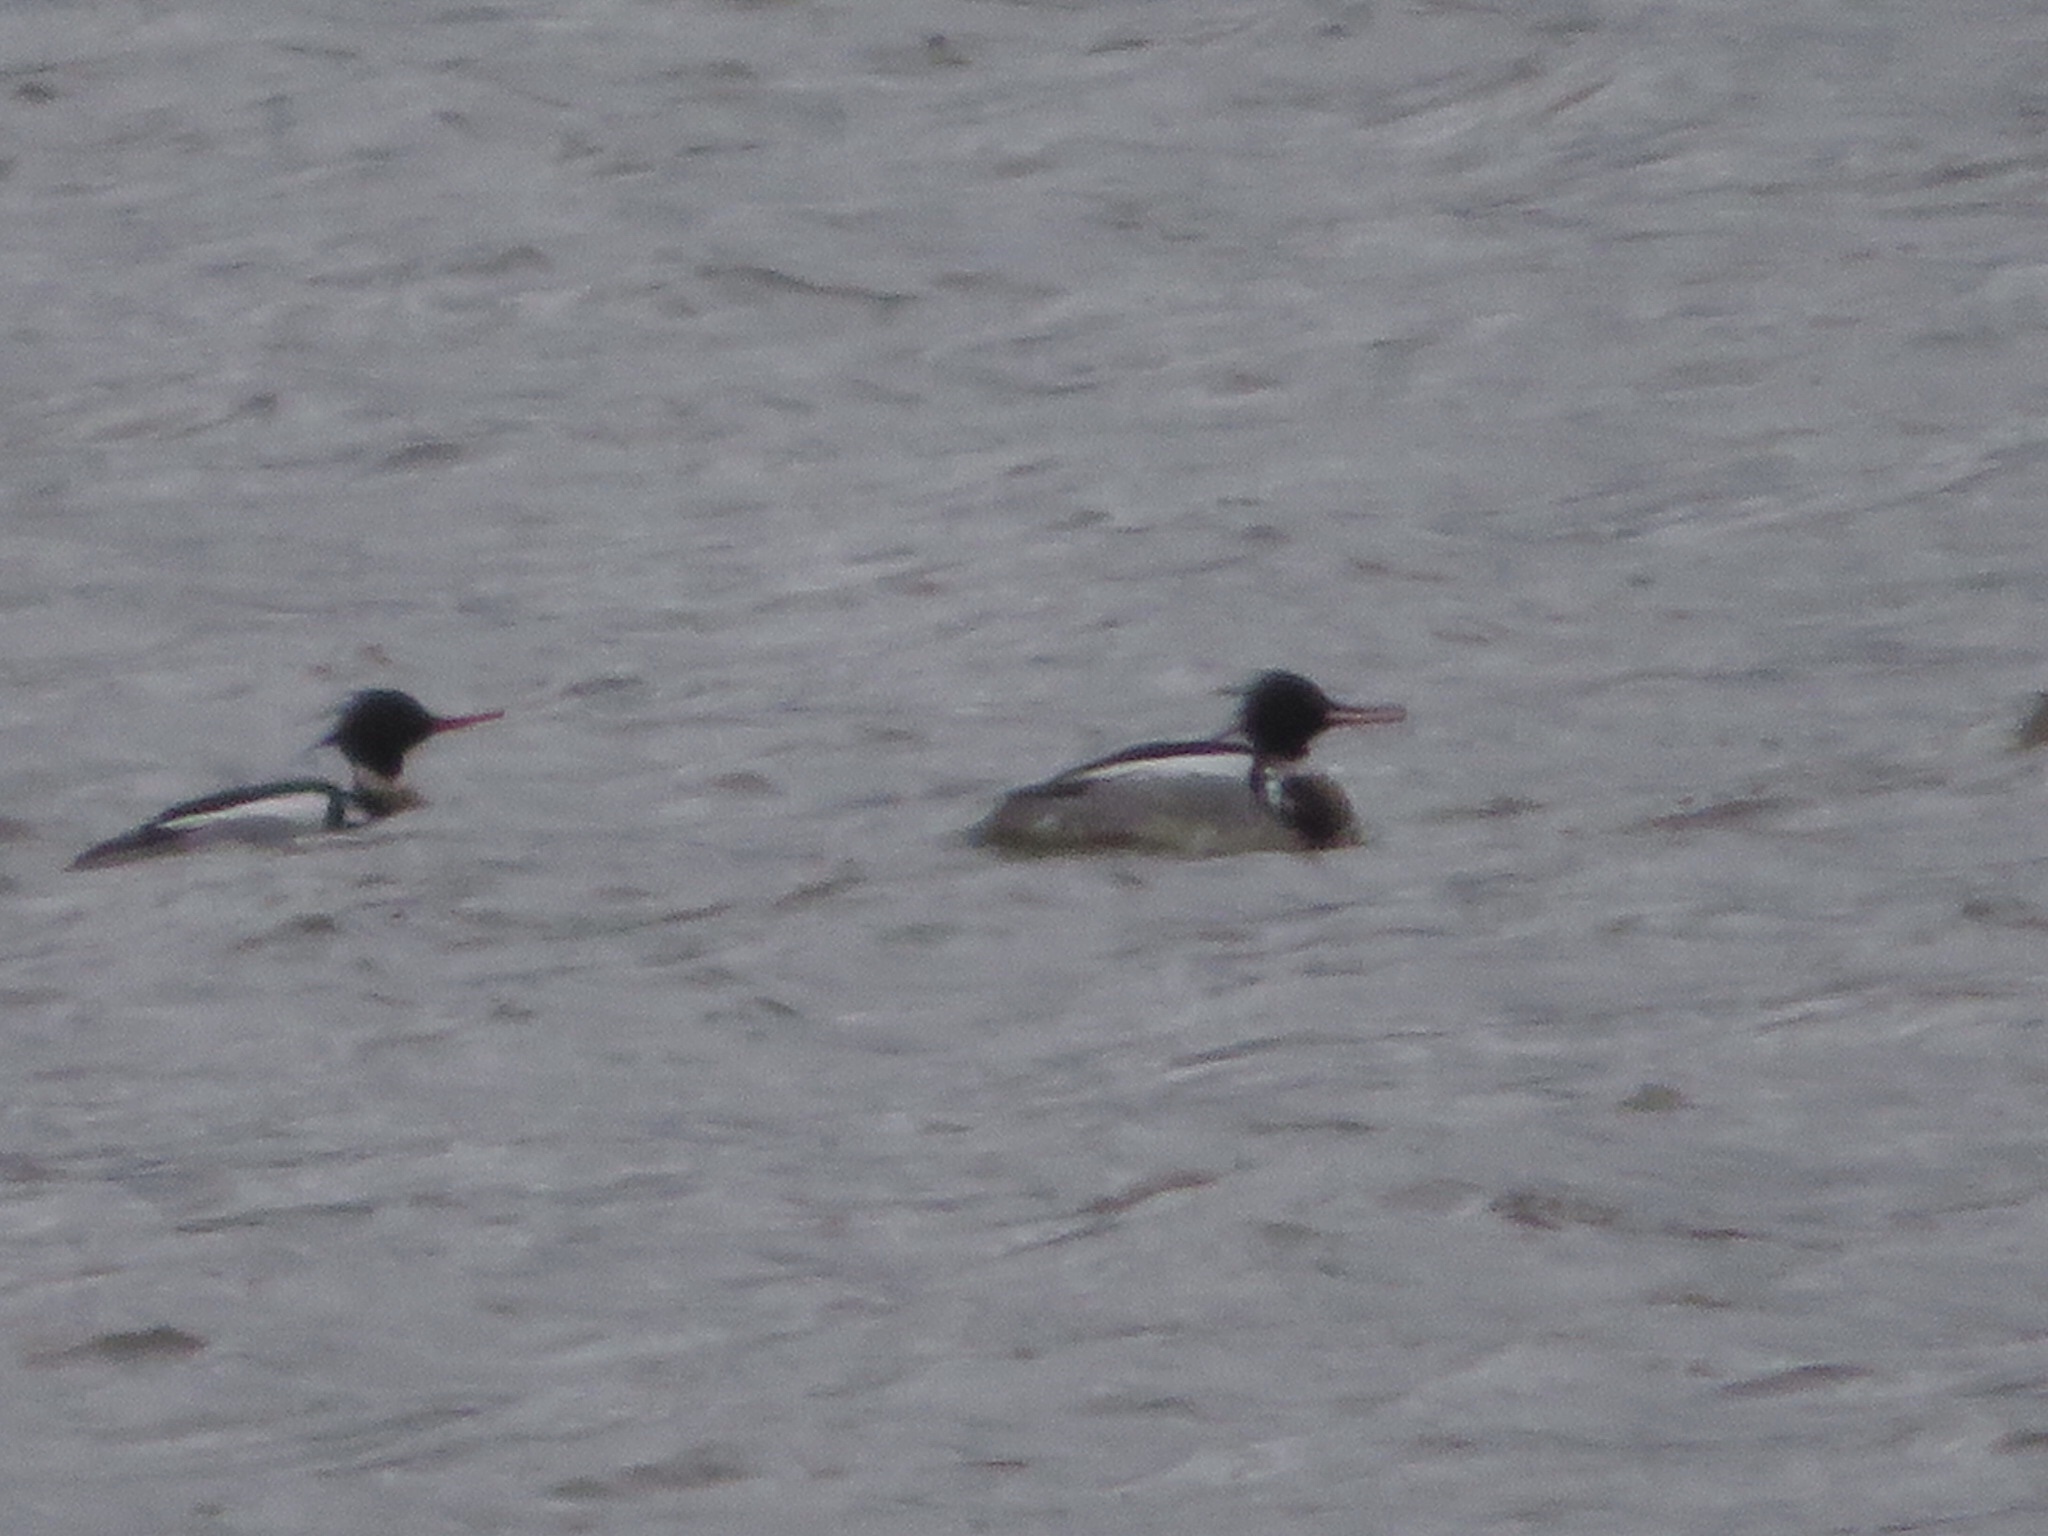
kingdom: Animalia
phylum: Chordata
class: Aves
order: Anseriformes
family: Anatidae
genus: Mergus
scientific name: Mergus serrator
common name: Red-breasted merganser
